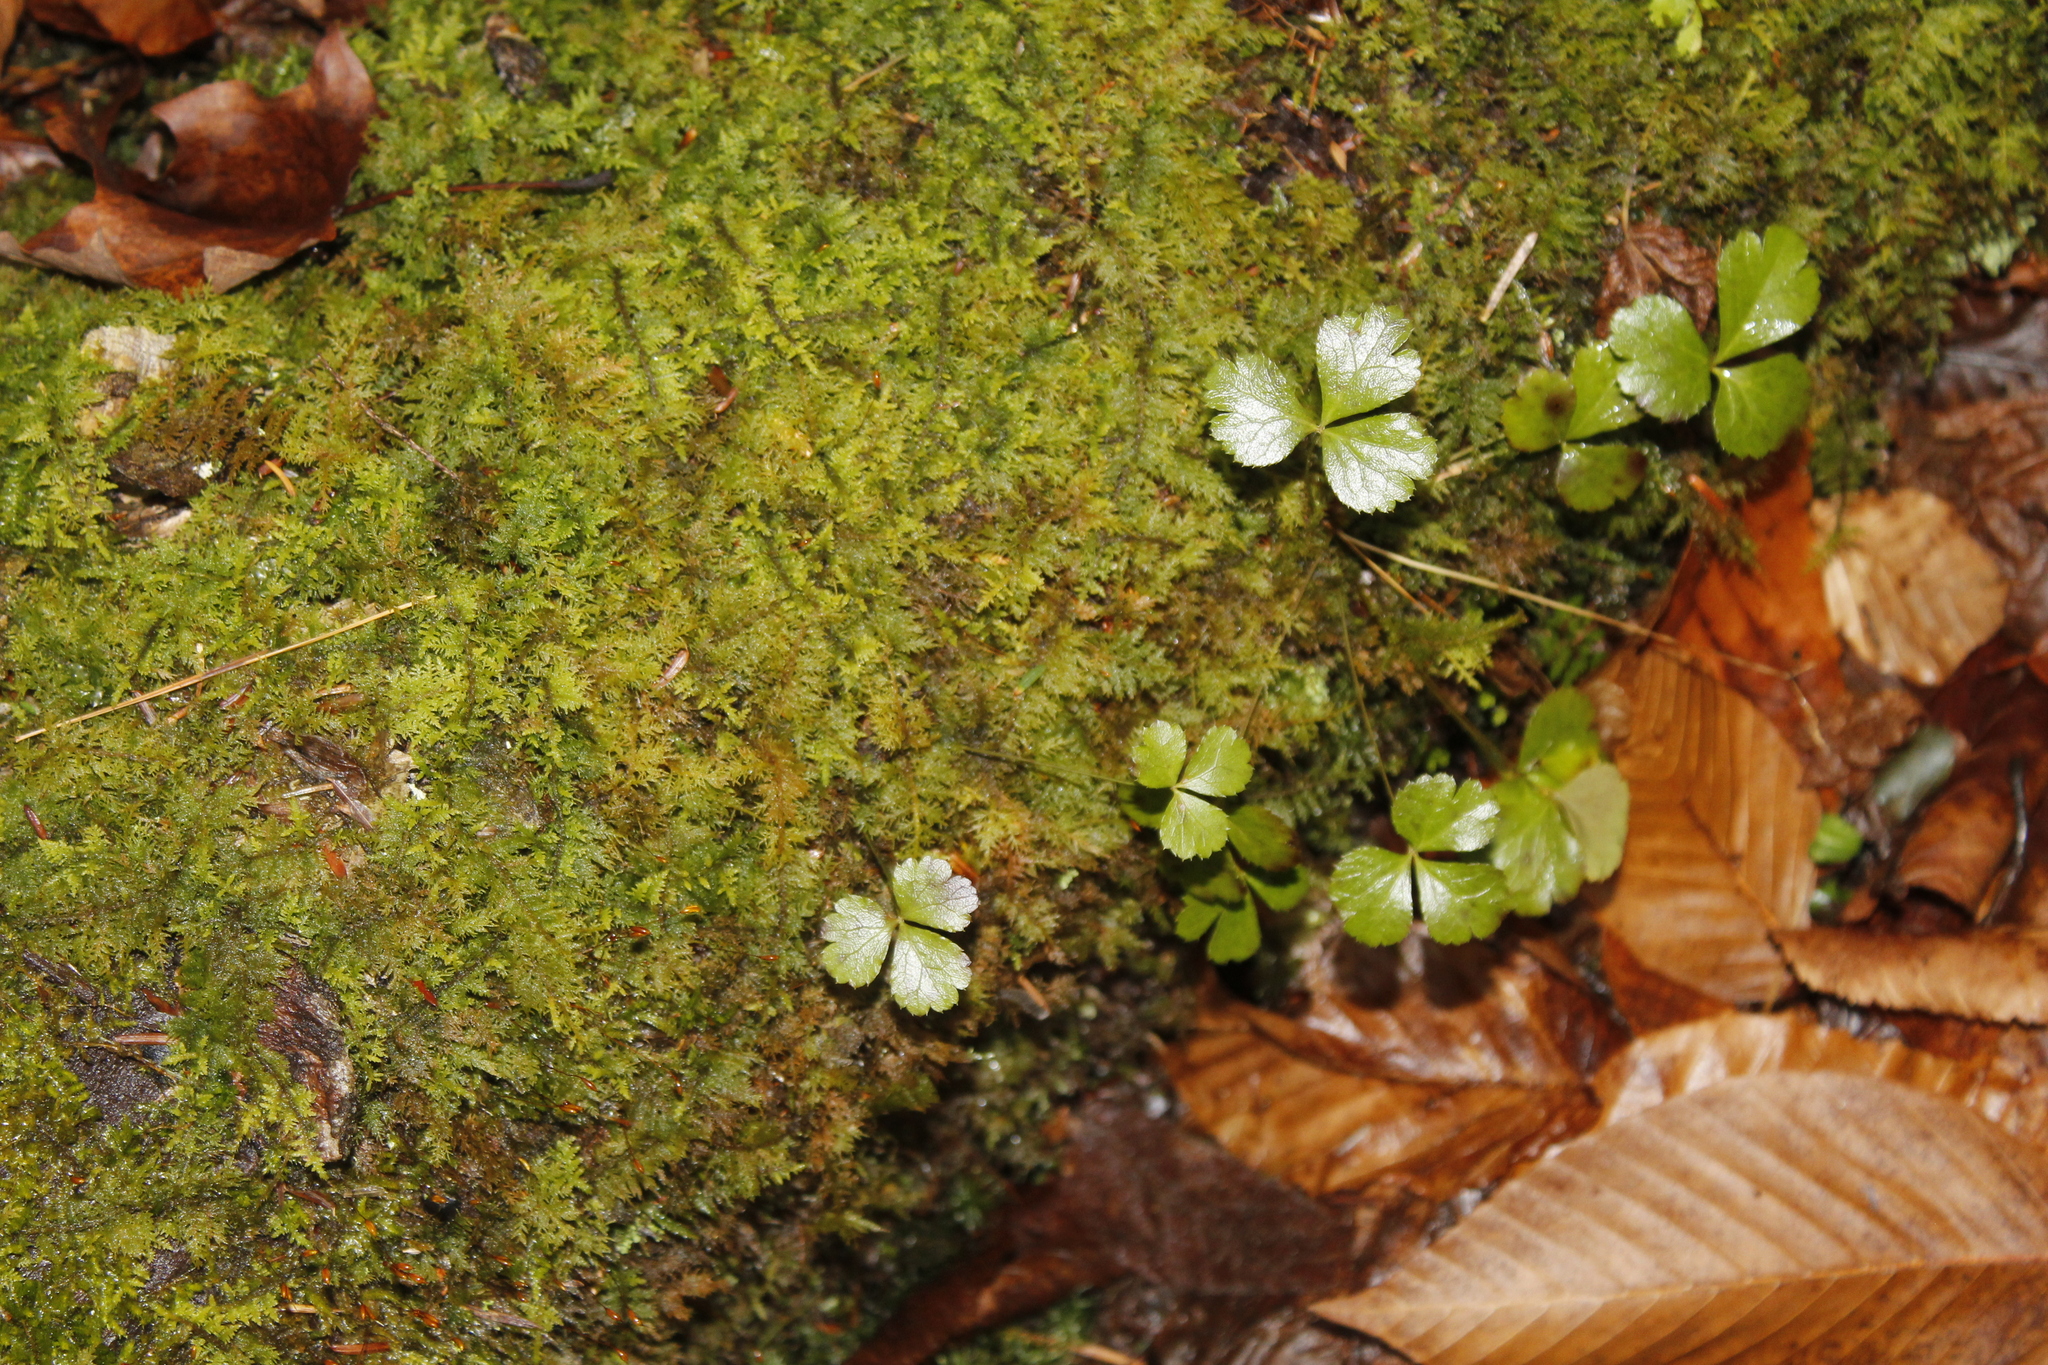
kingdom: Plantae
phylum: Tracheophyta
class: Magnoliopsida
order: Ranunculales
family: Ranunculaceae
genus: Coptis
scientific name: Coptis trifolia
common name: Canker-root
